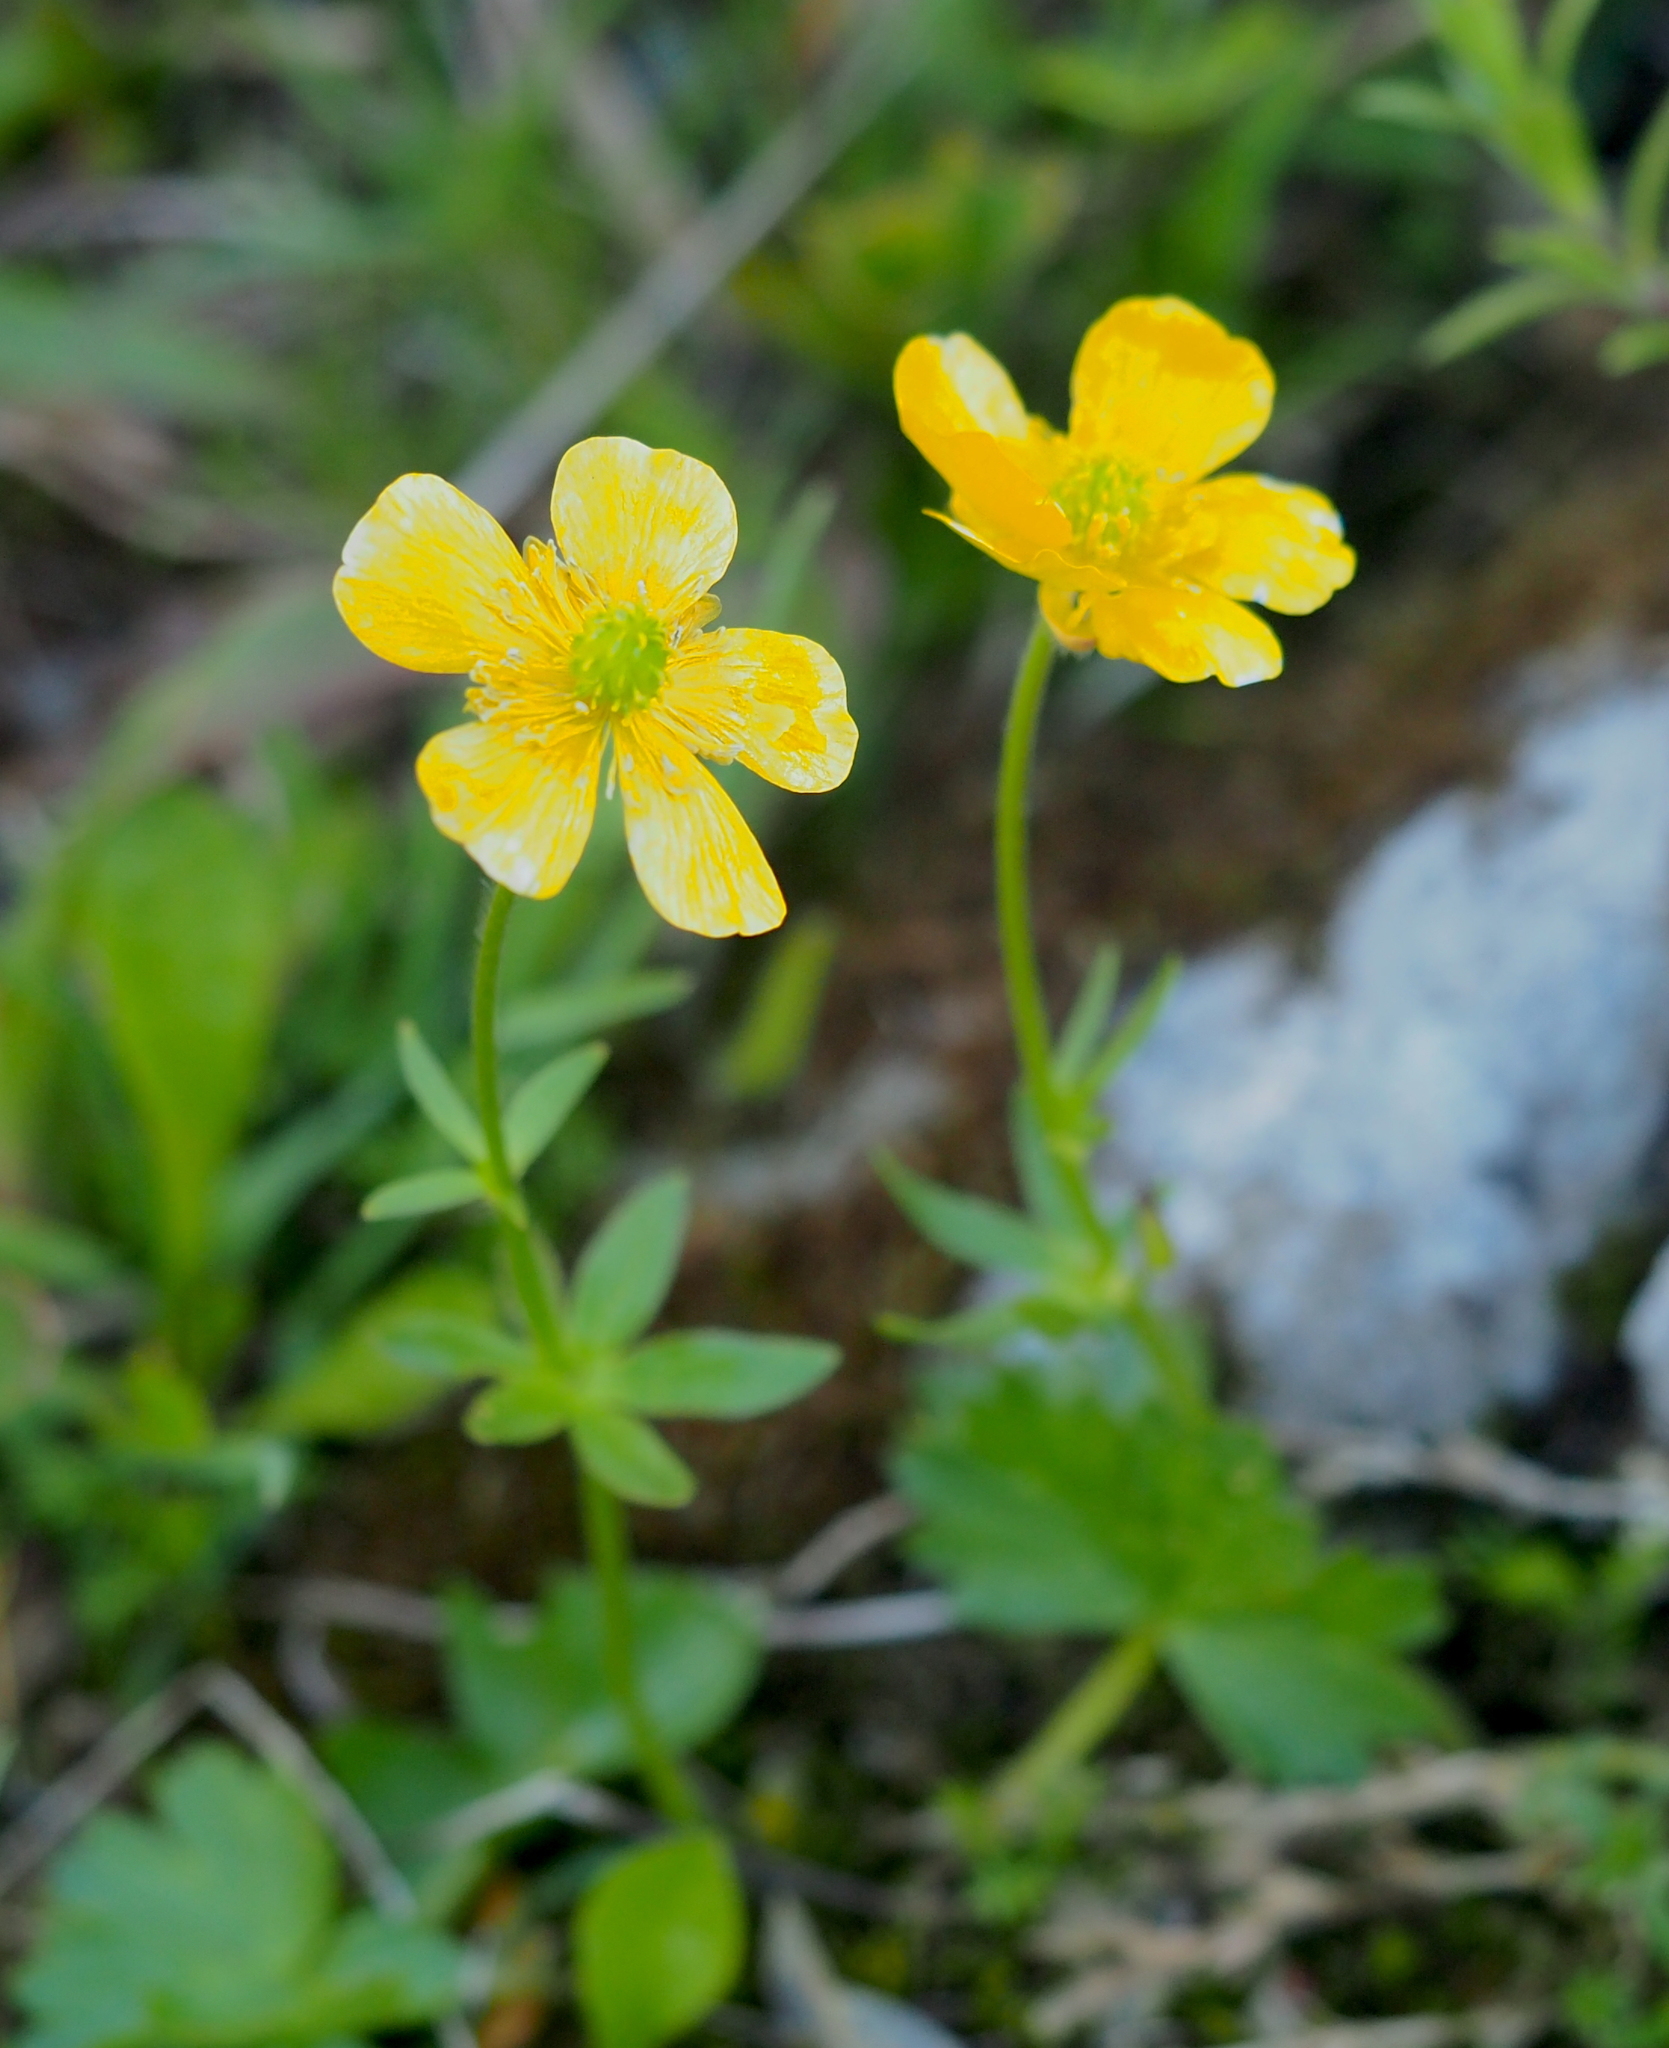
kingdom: Plantae
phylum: Tracheophyta
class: Magnoliopsida
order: Ranunculales
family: Ranunculaceae
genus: Ranunculus
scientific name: Ranunculus montanus
